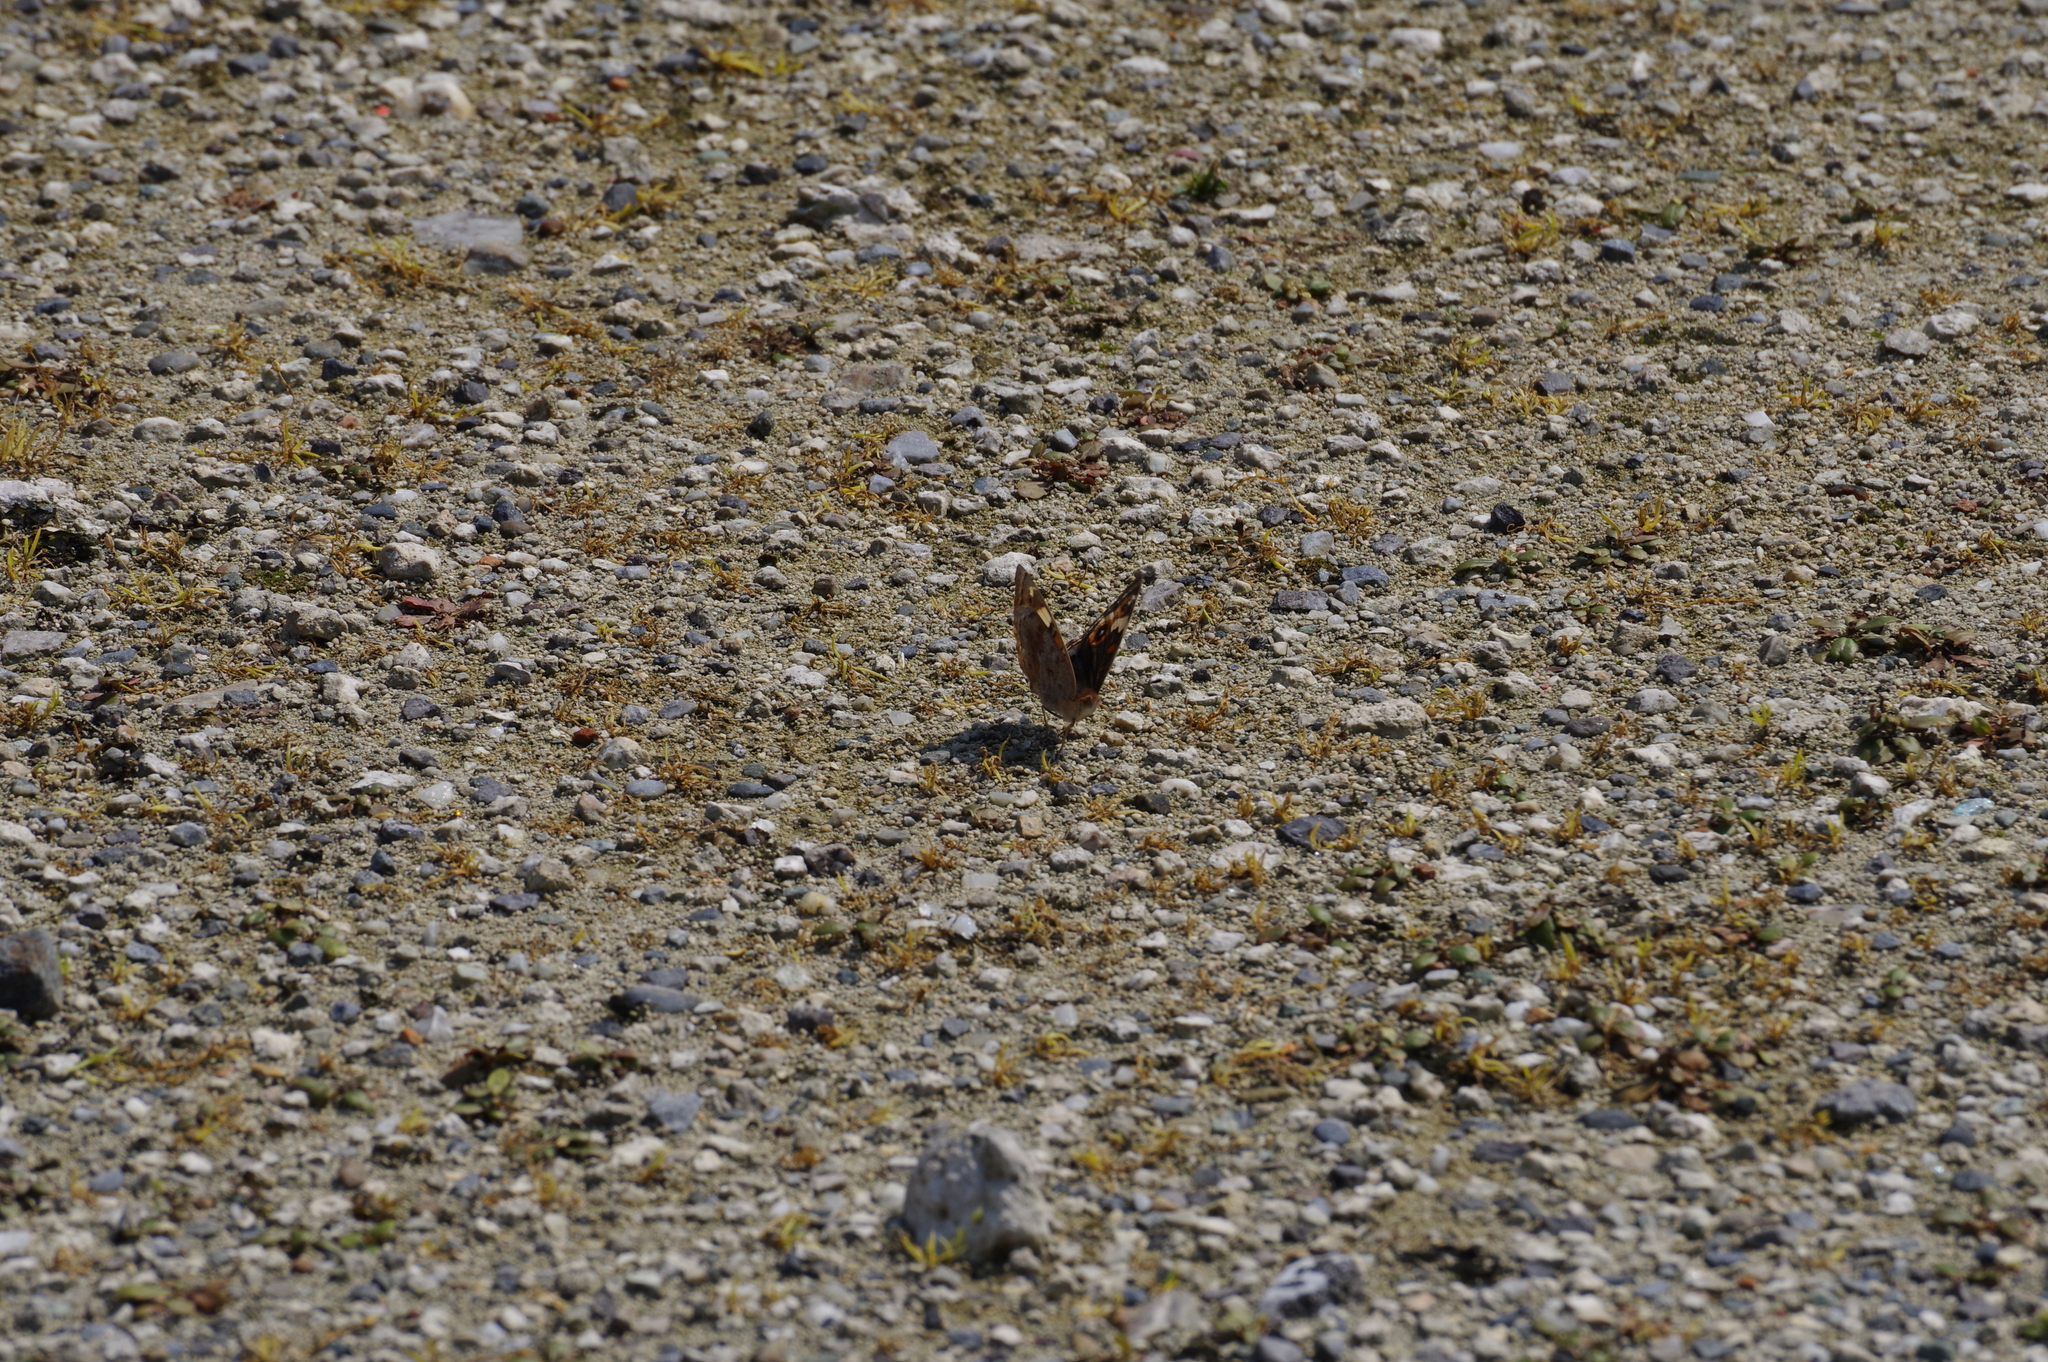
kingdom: Animalia
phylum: Arthropoda
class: Insecta
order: Lepidoptera
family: Nymphalidae
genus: Junonia
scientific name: Junonia orithya
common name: Blue pansy
